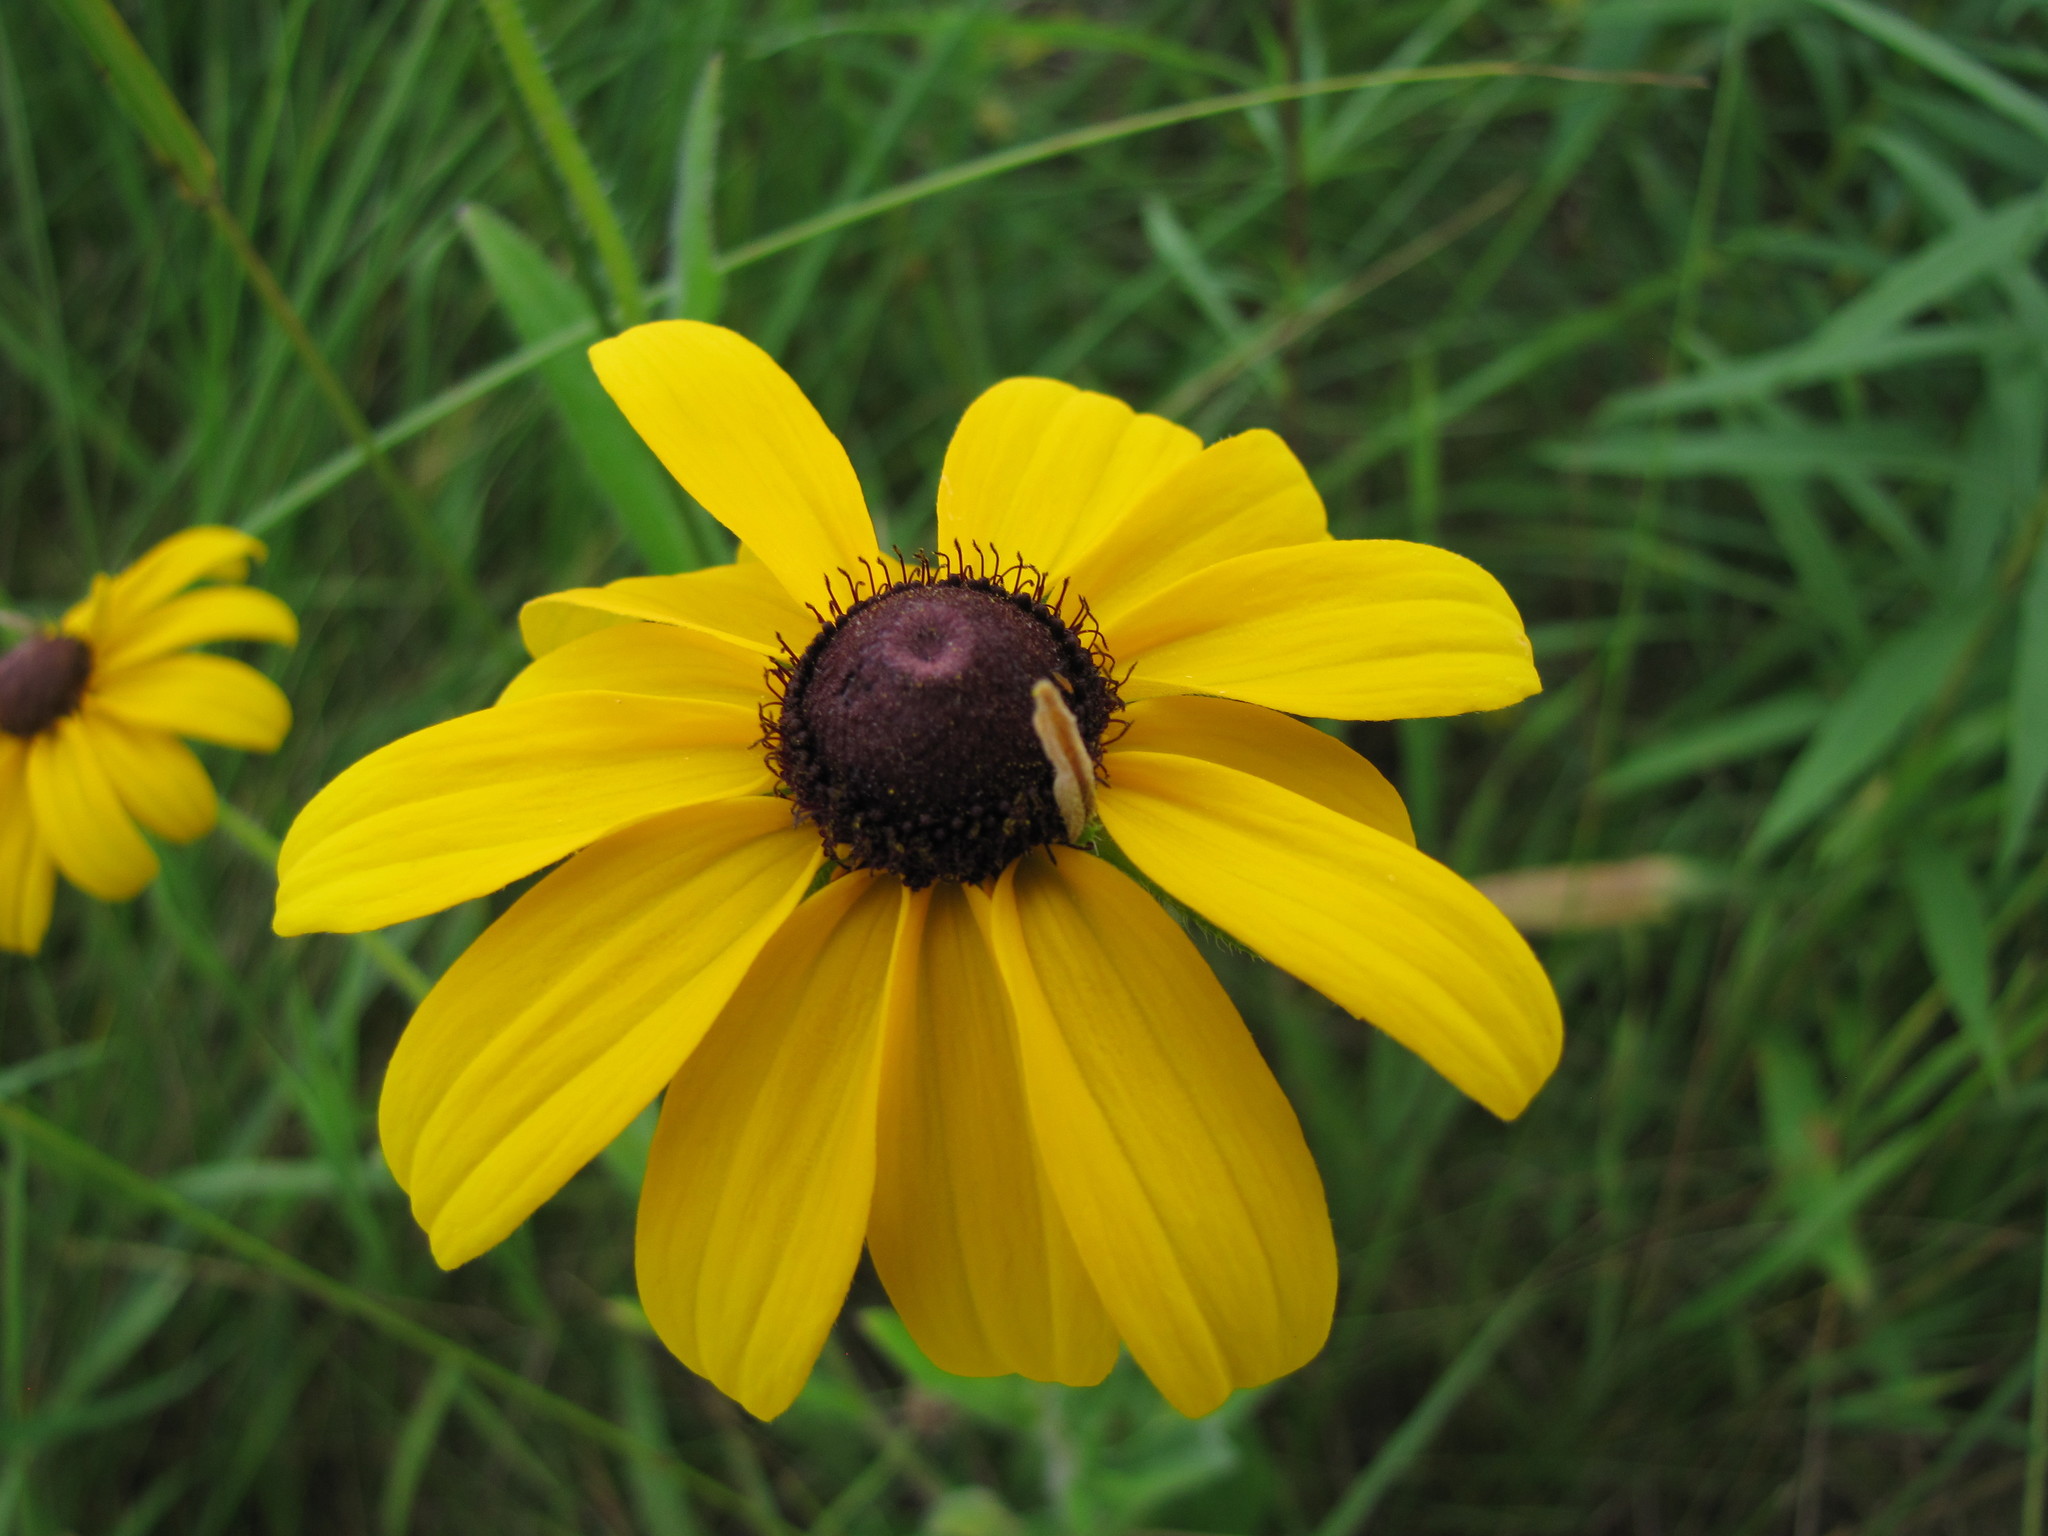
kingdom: Plantae
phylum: Tracheophyta
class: Magnoliopsida
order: Asterales
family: Asteraceae
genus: Rudbeckia
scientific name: Rudbeckia hirta
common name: Black-eyed-susan
